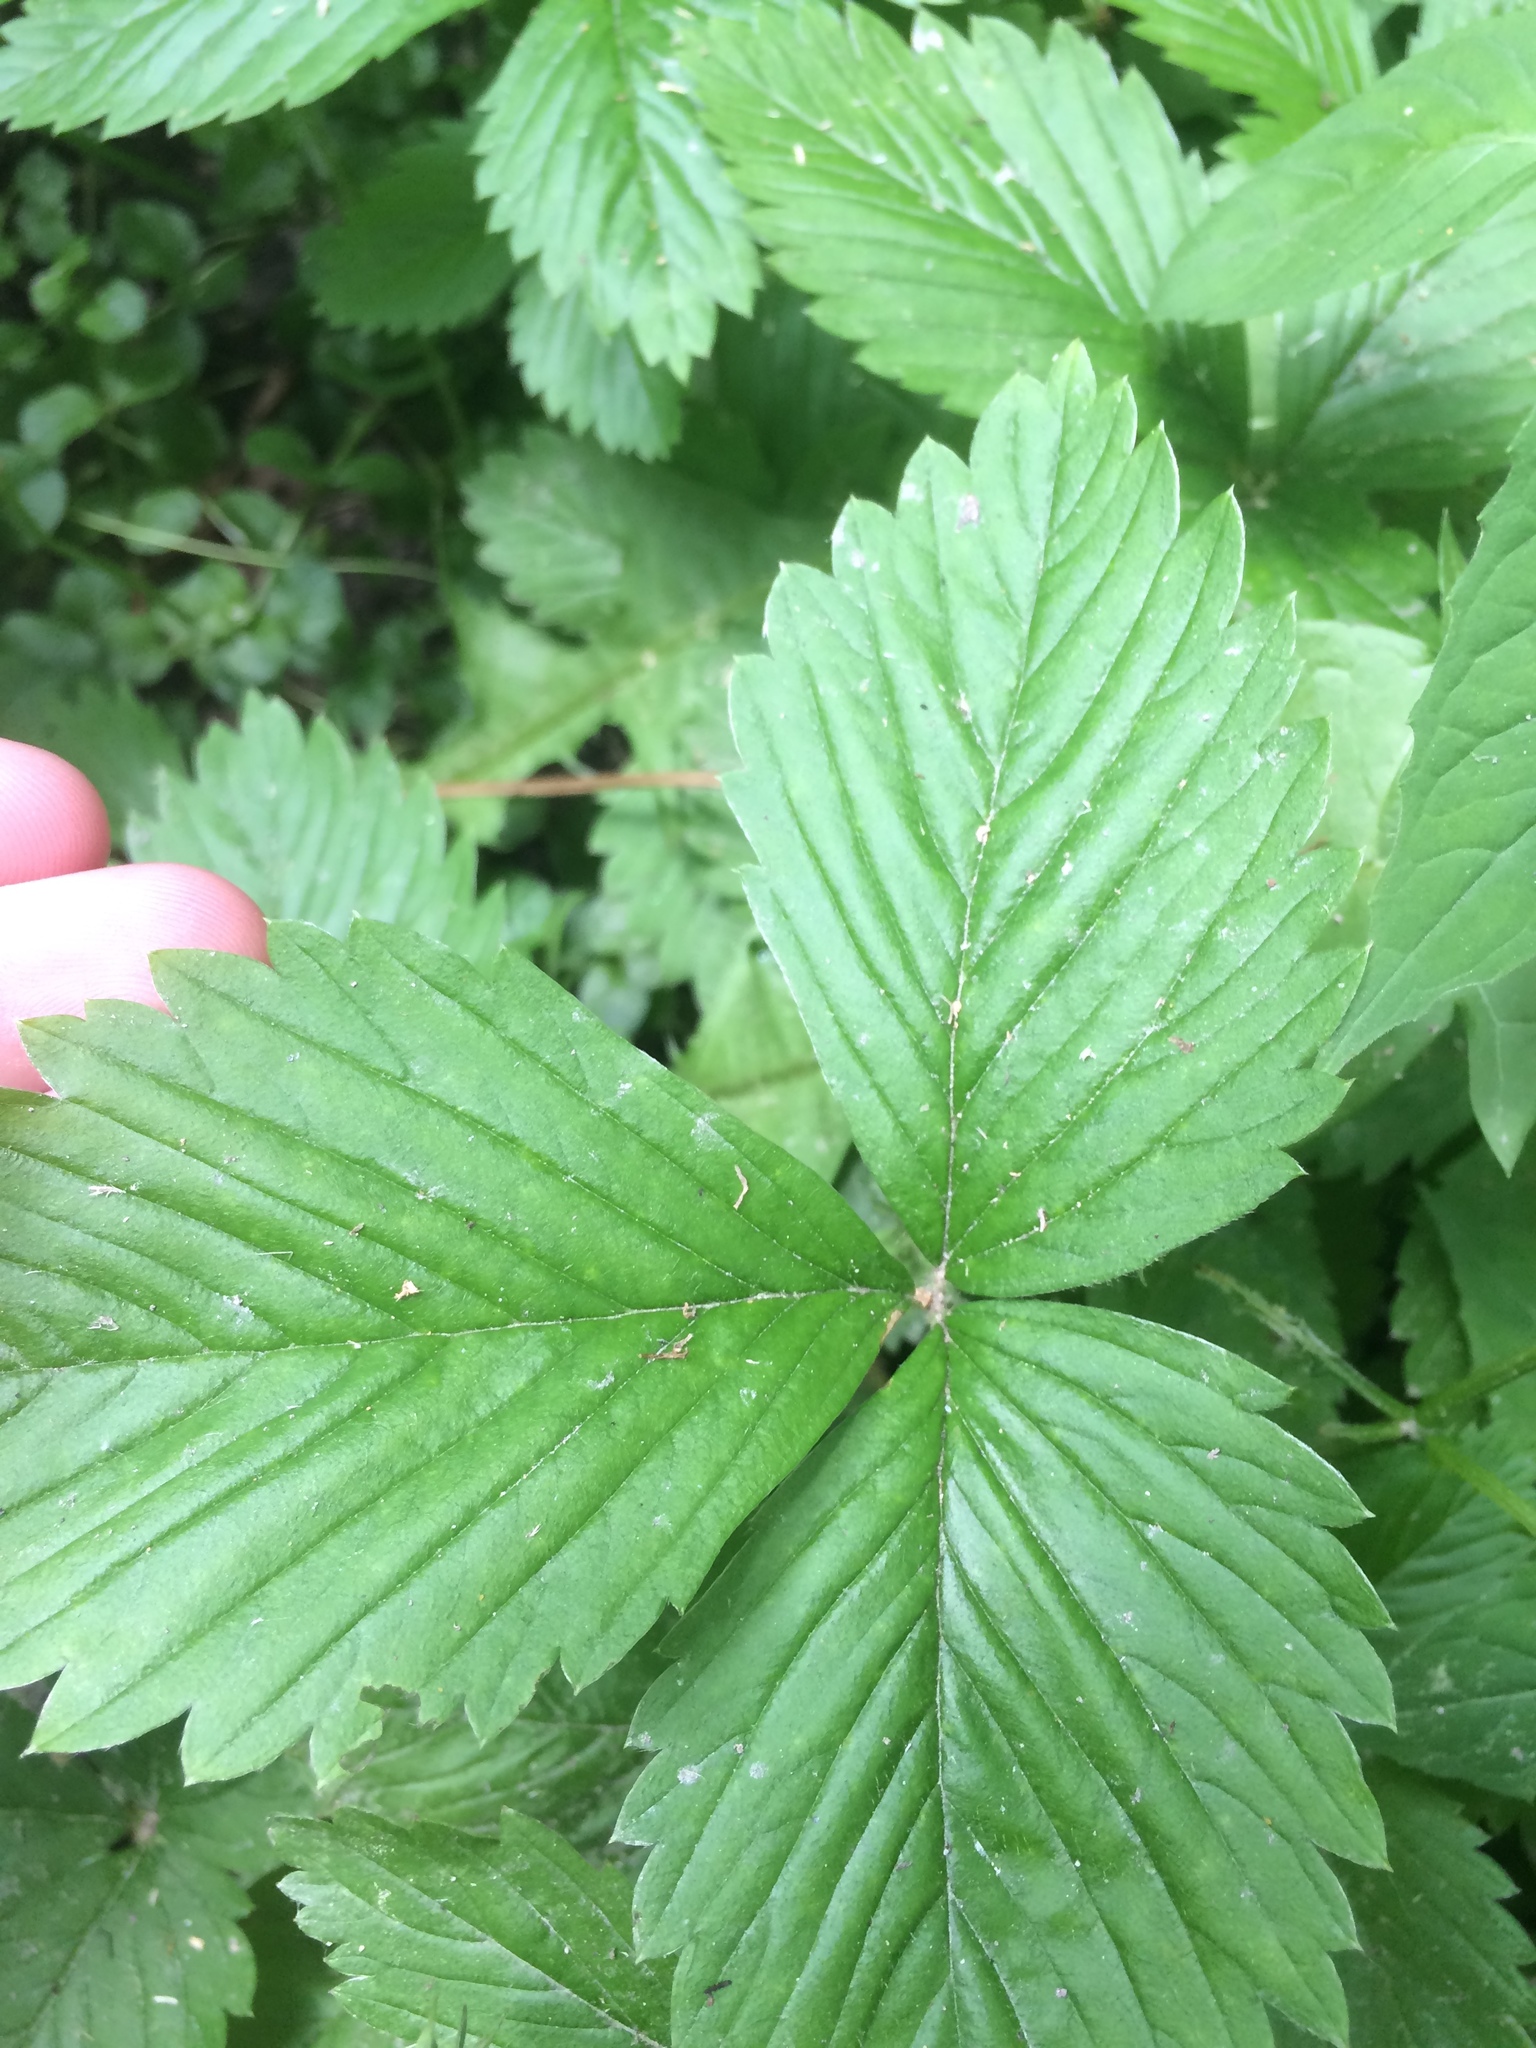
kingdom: Plantae
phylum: Tracheophyta
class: Magnoliopsida
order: Rosales
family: Rosaceae
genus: Fragaria
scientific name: Fragaria vesca
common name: Wild strawberry
